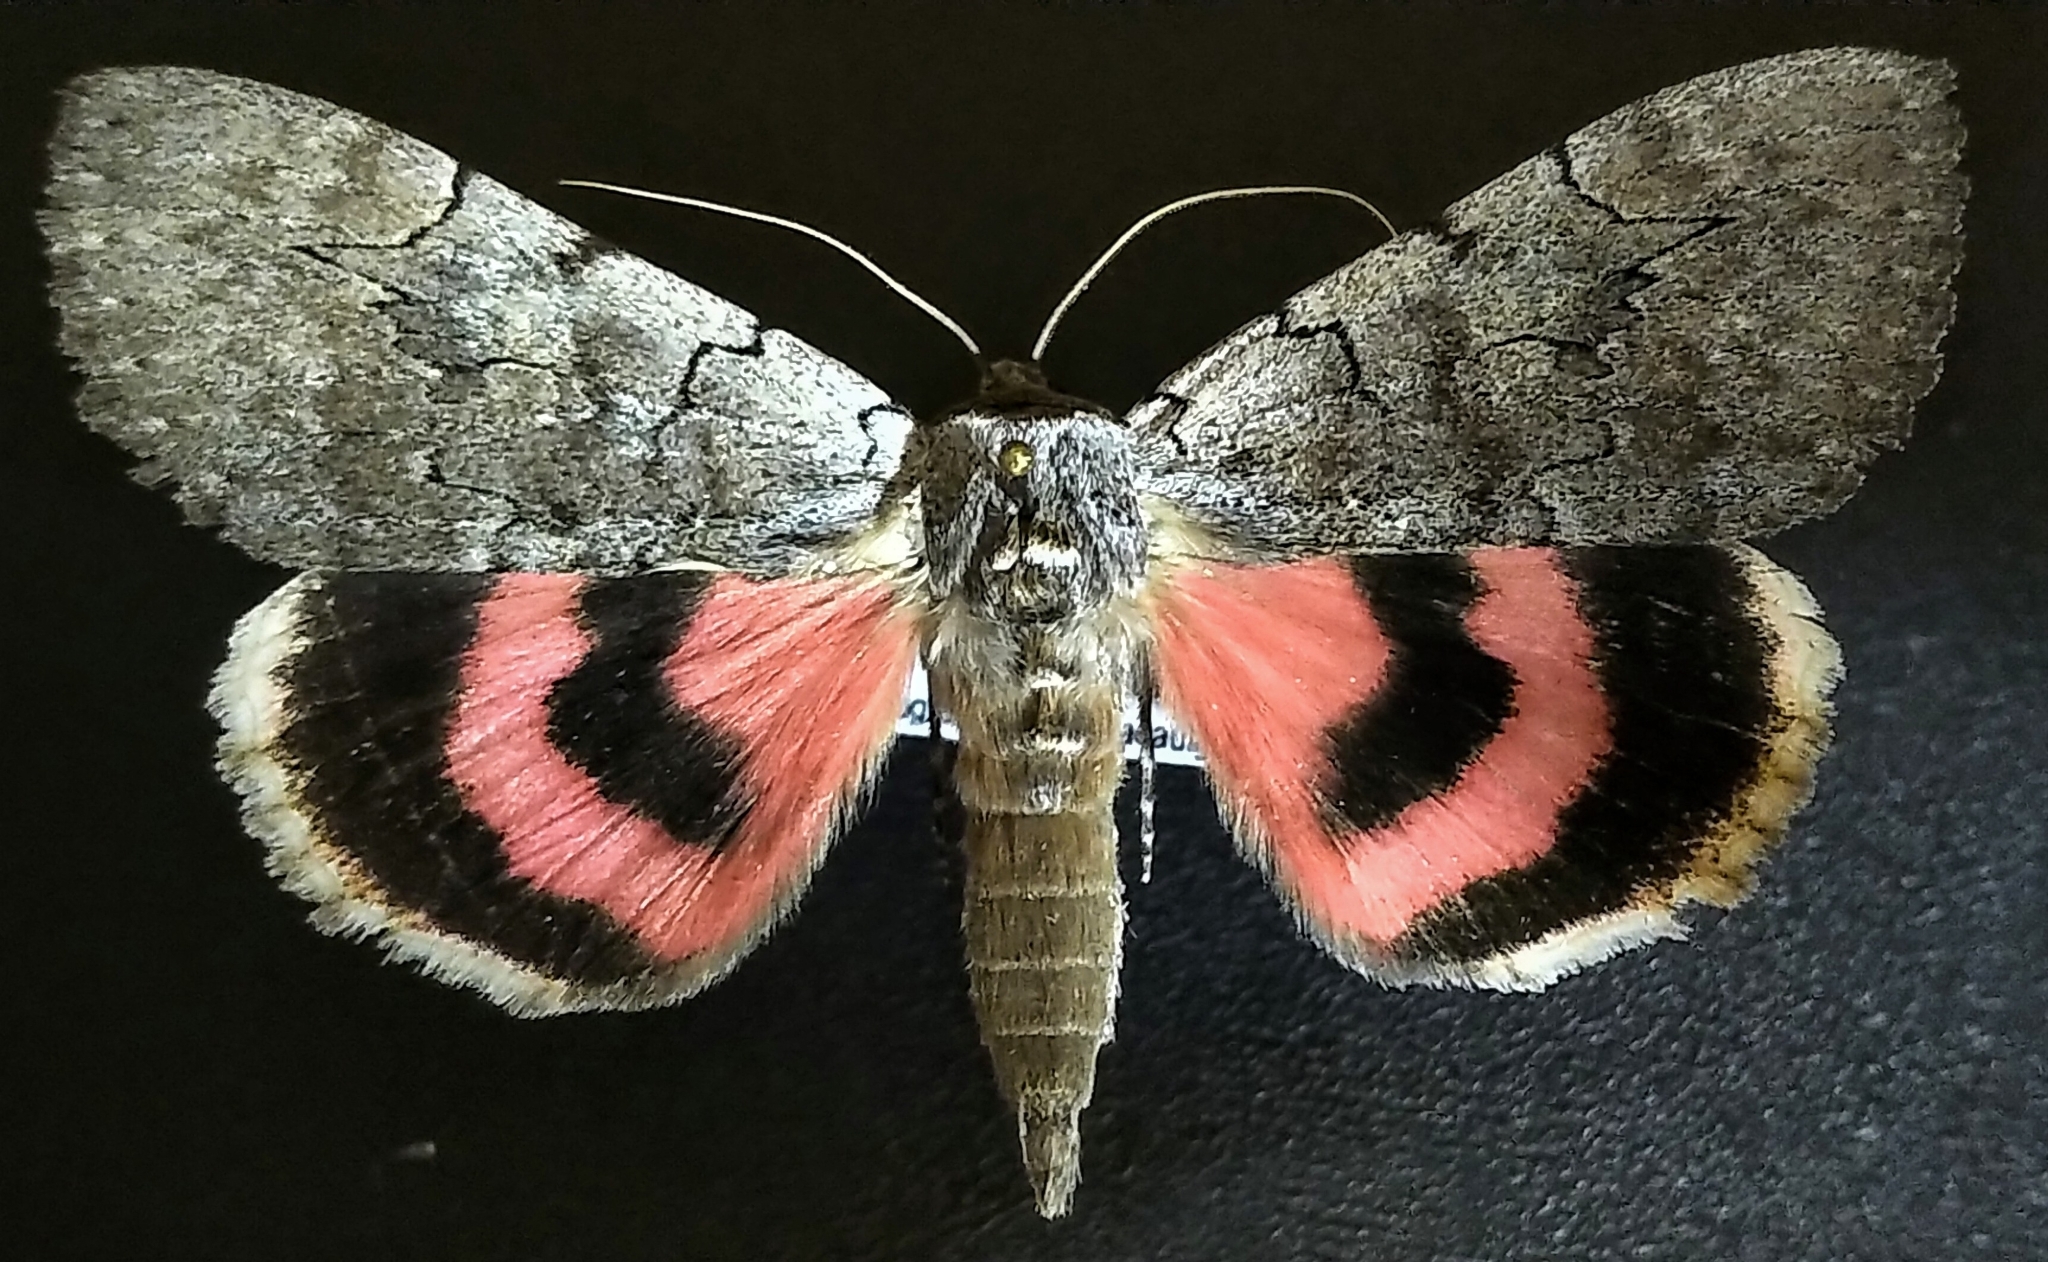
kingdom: Animalia
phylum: Arthropoda
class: Insecta
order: Lepidoptera
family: Erebidae
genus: Catocala
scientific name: Catocala concumbens
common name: Pink underwing
